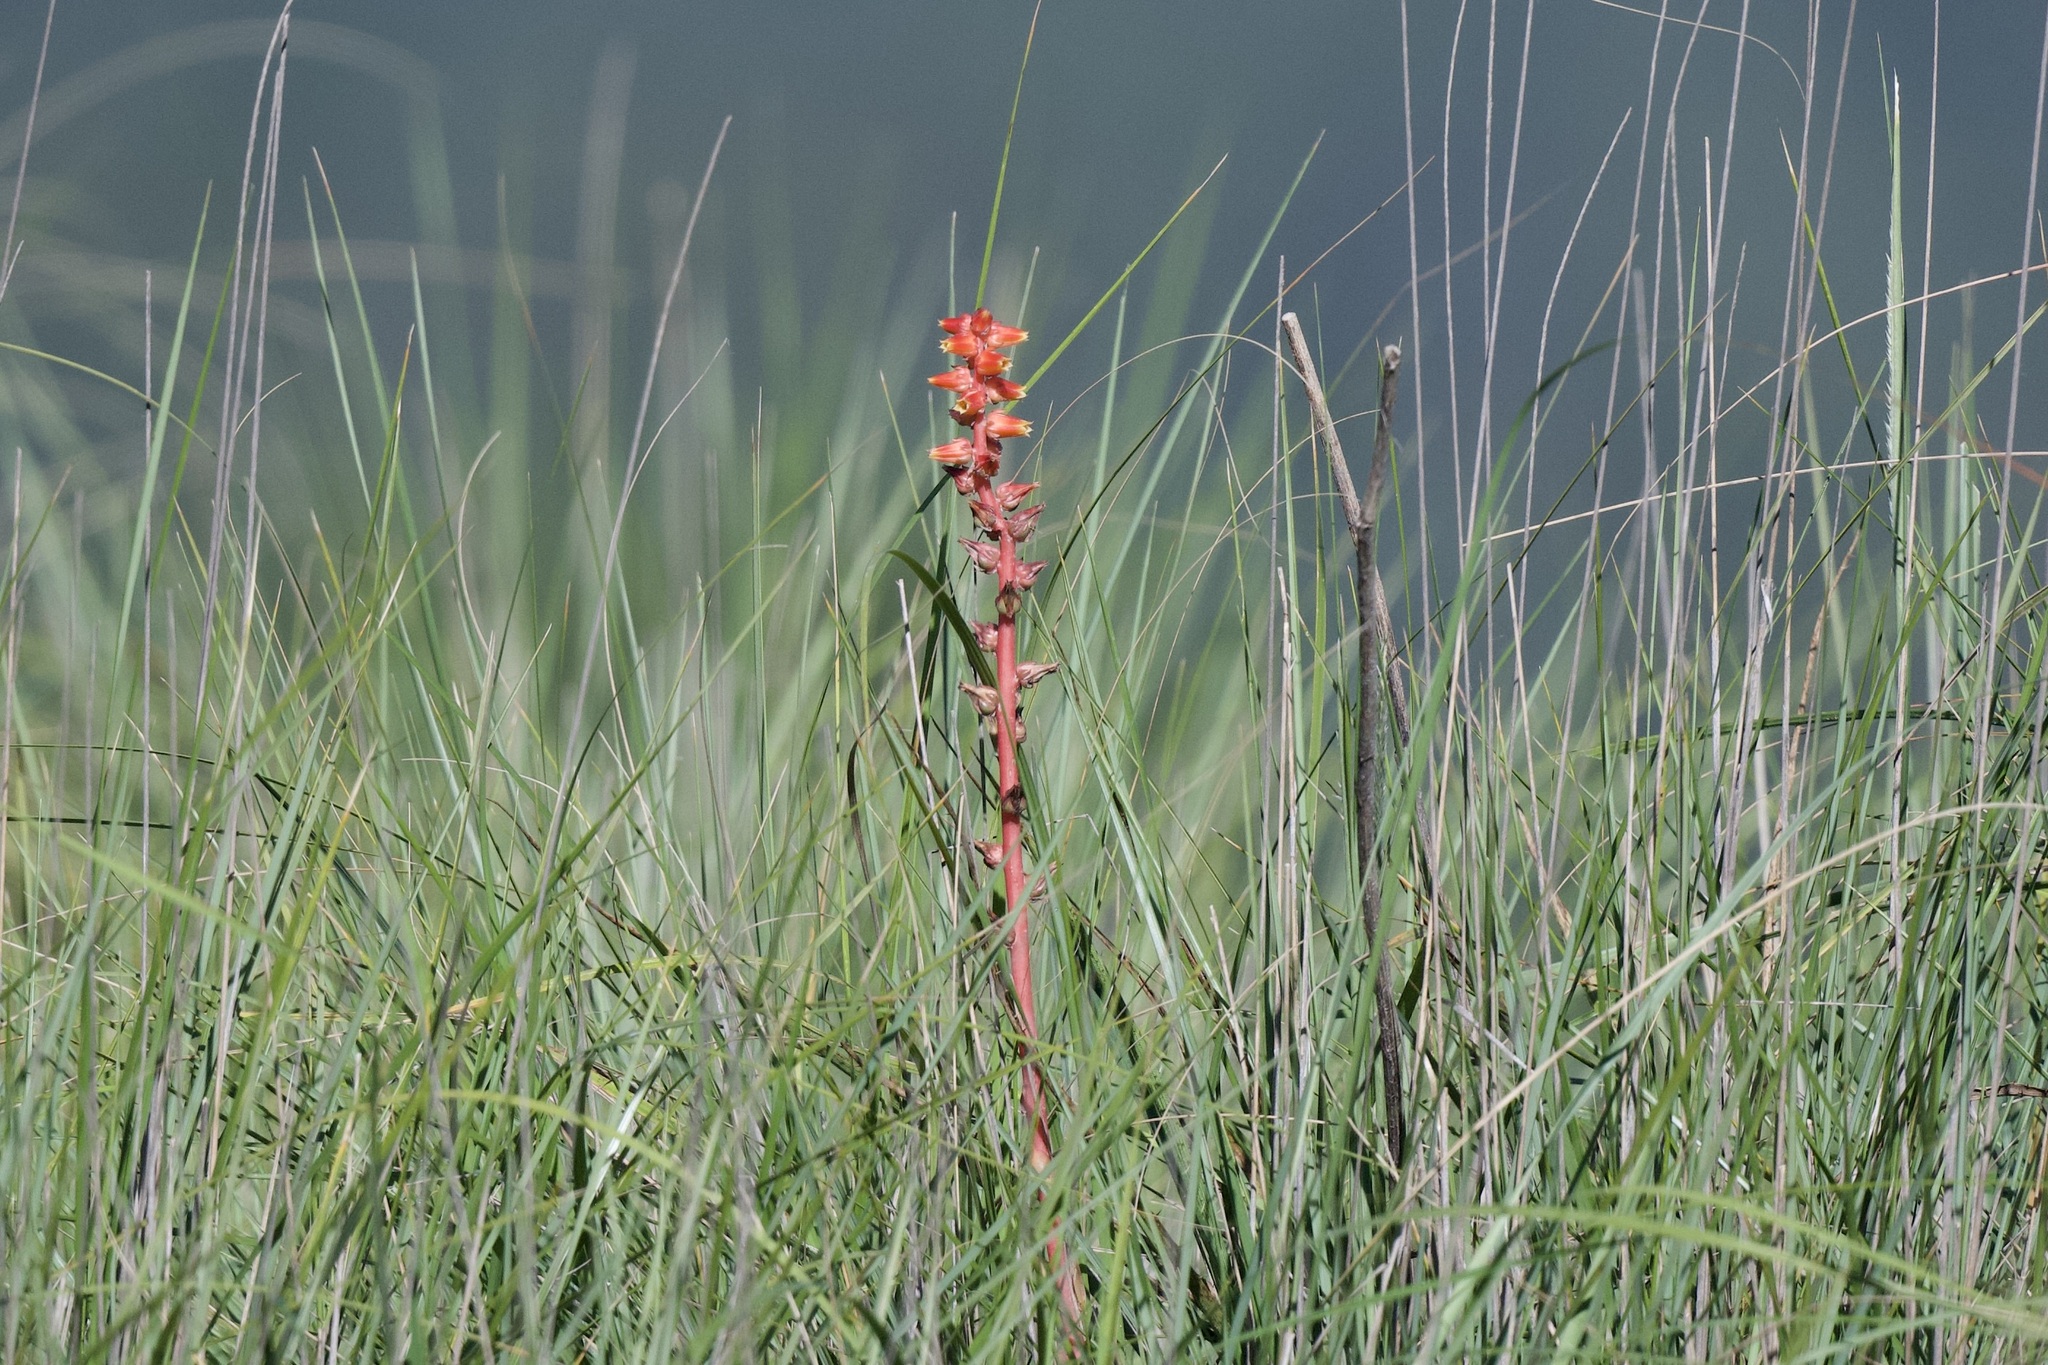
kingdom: Plantae
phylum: Tracheophyta
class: Magnoliopsida
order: Saxifragales
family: Crassulaceae
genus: Echeveria
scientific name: Echeveria mucronata
